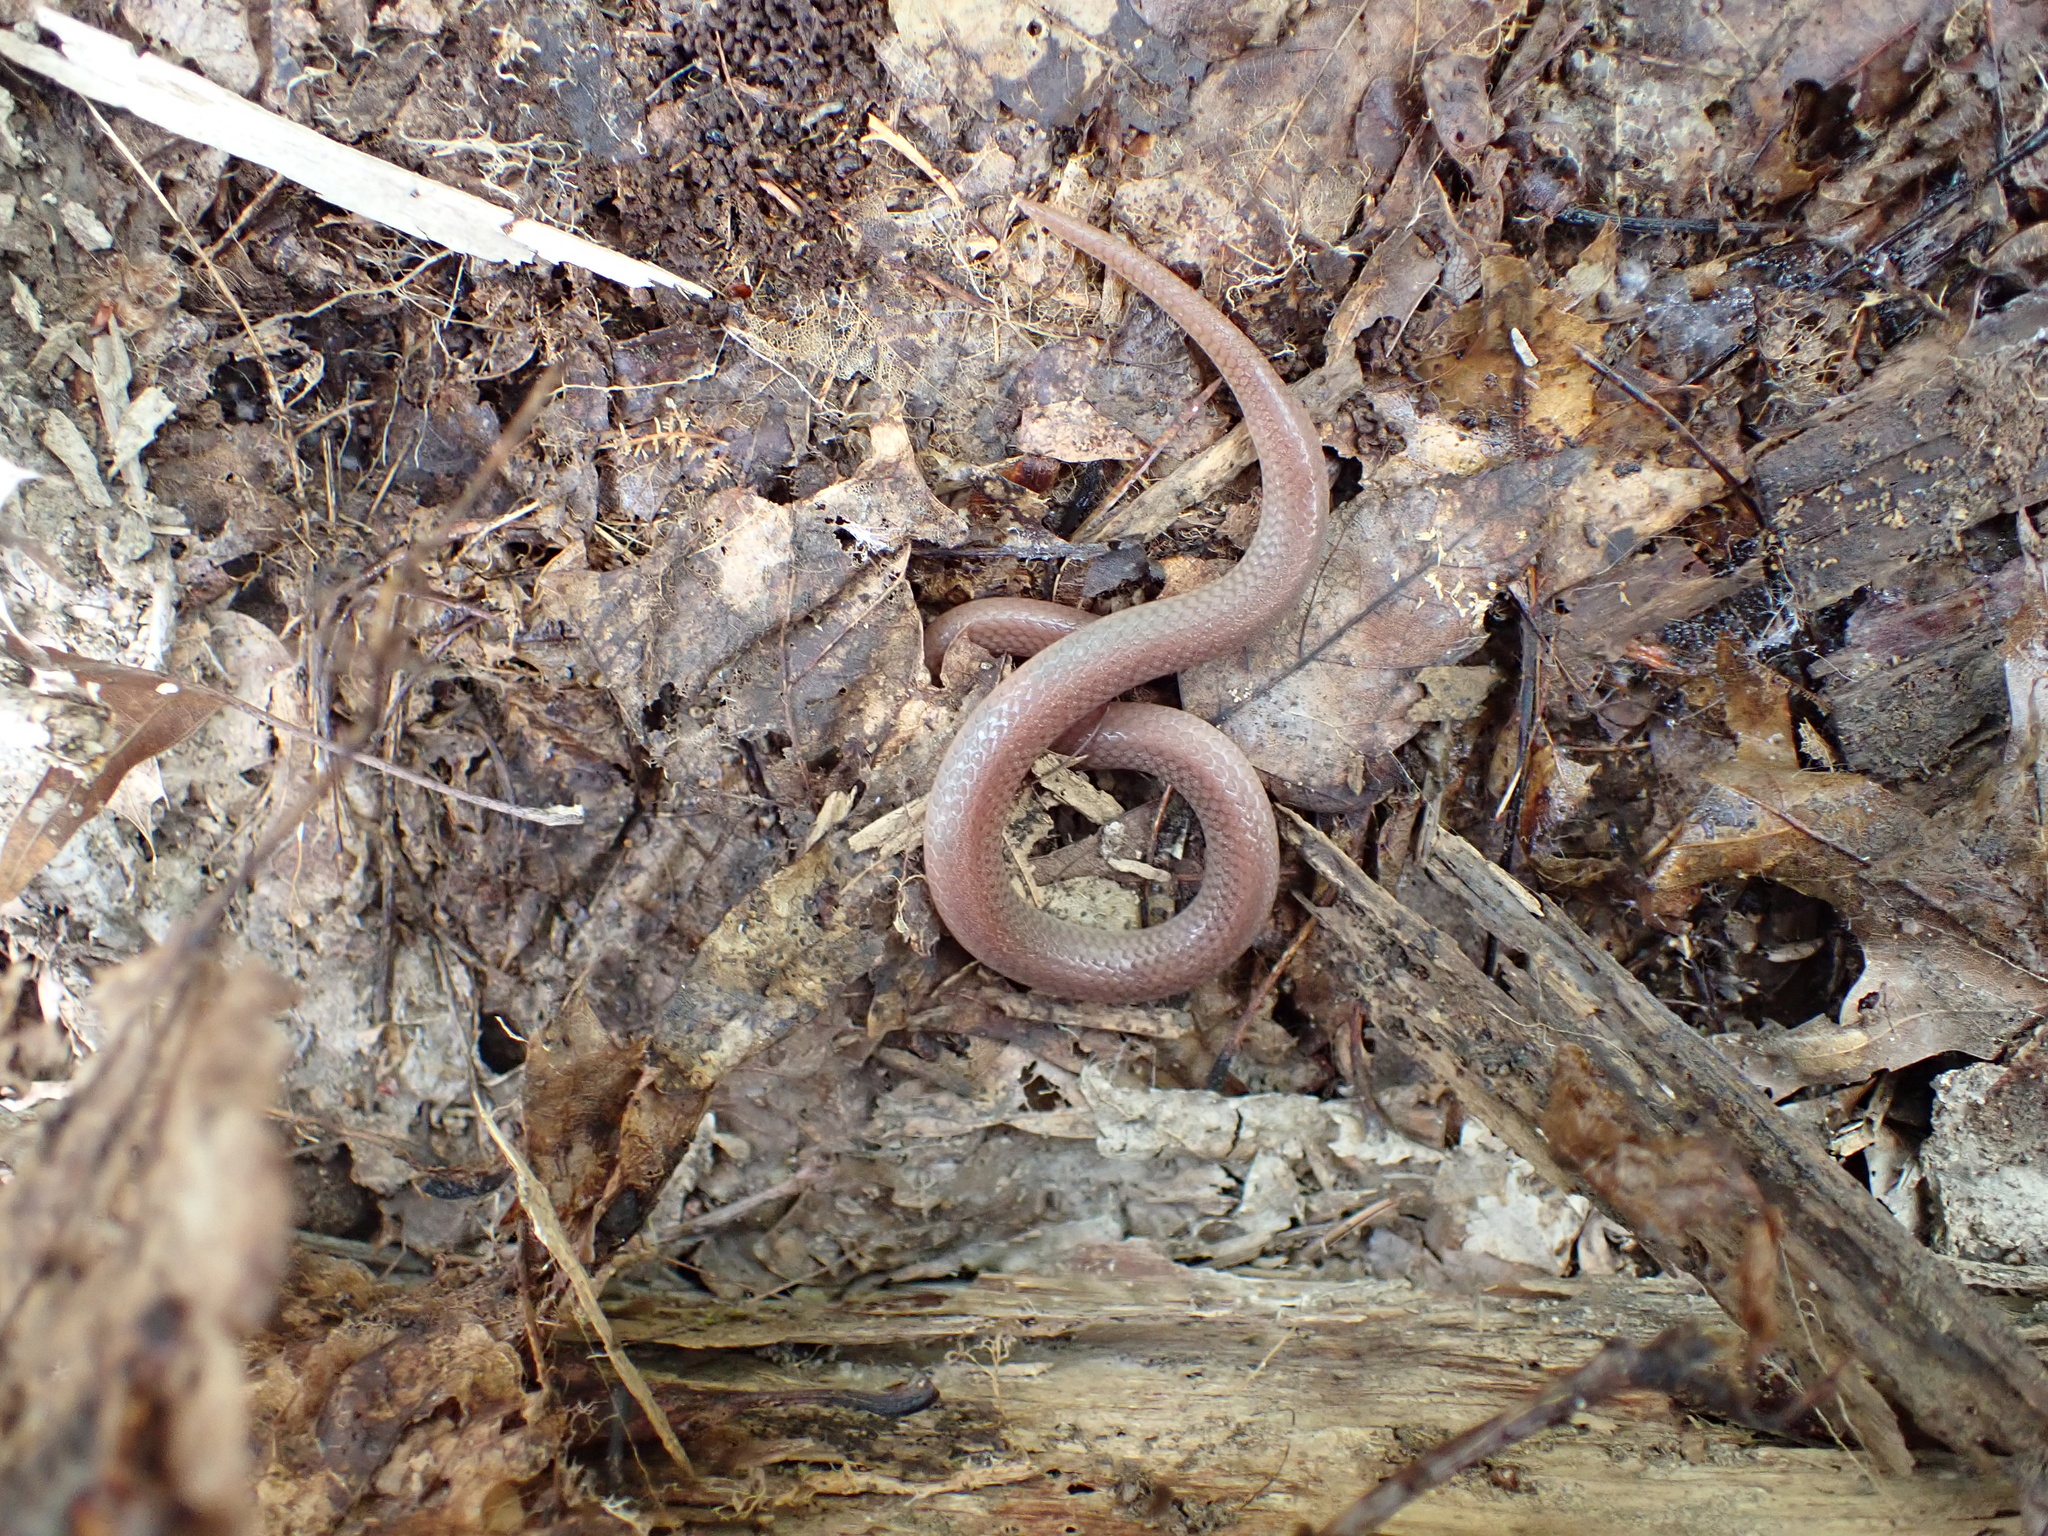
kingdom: Animalia
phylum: Chordata
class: Squamata
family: Colubridae
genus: Carphophis
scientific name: Carphophis amoenus
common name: Eastern worm snake
